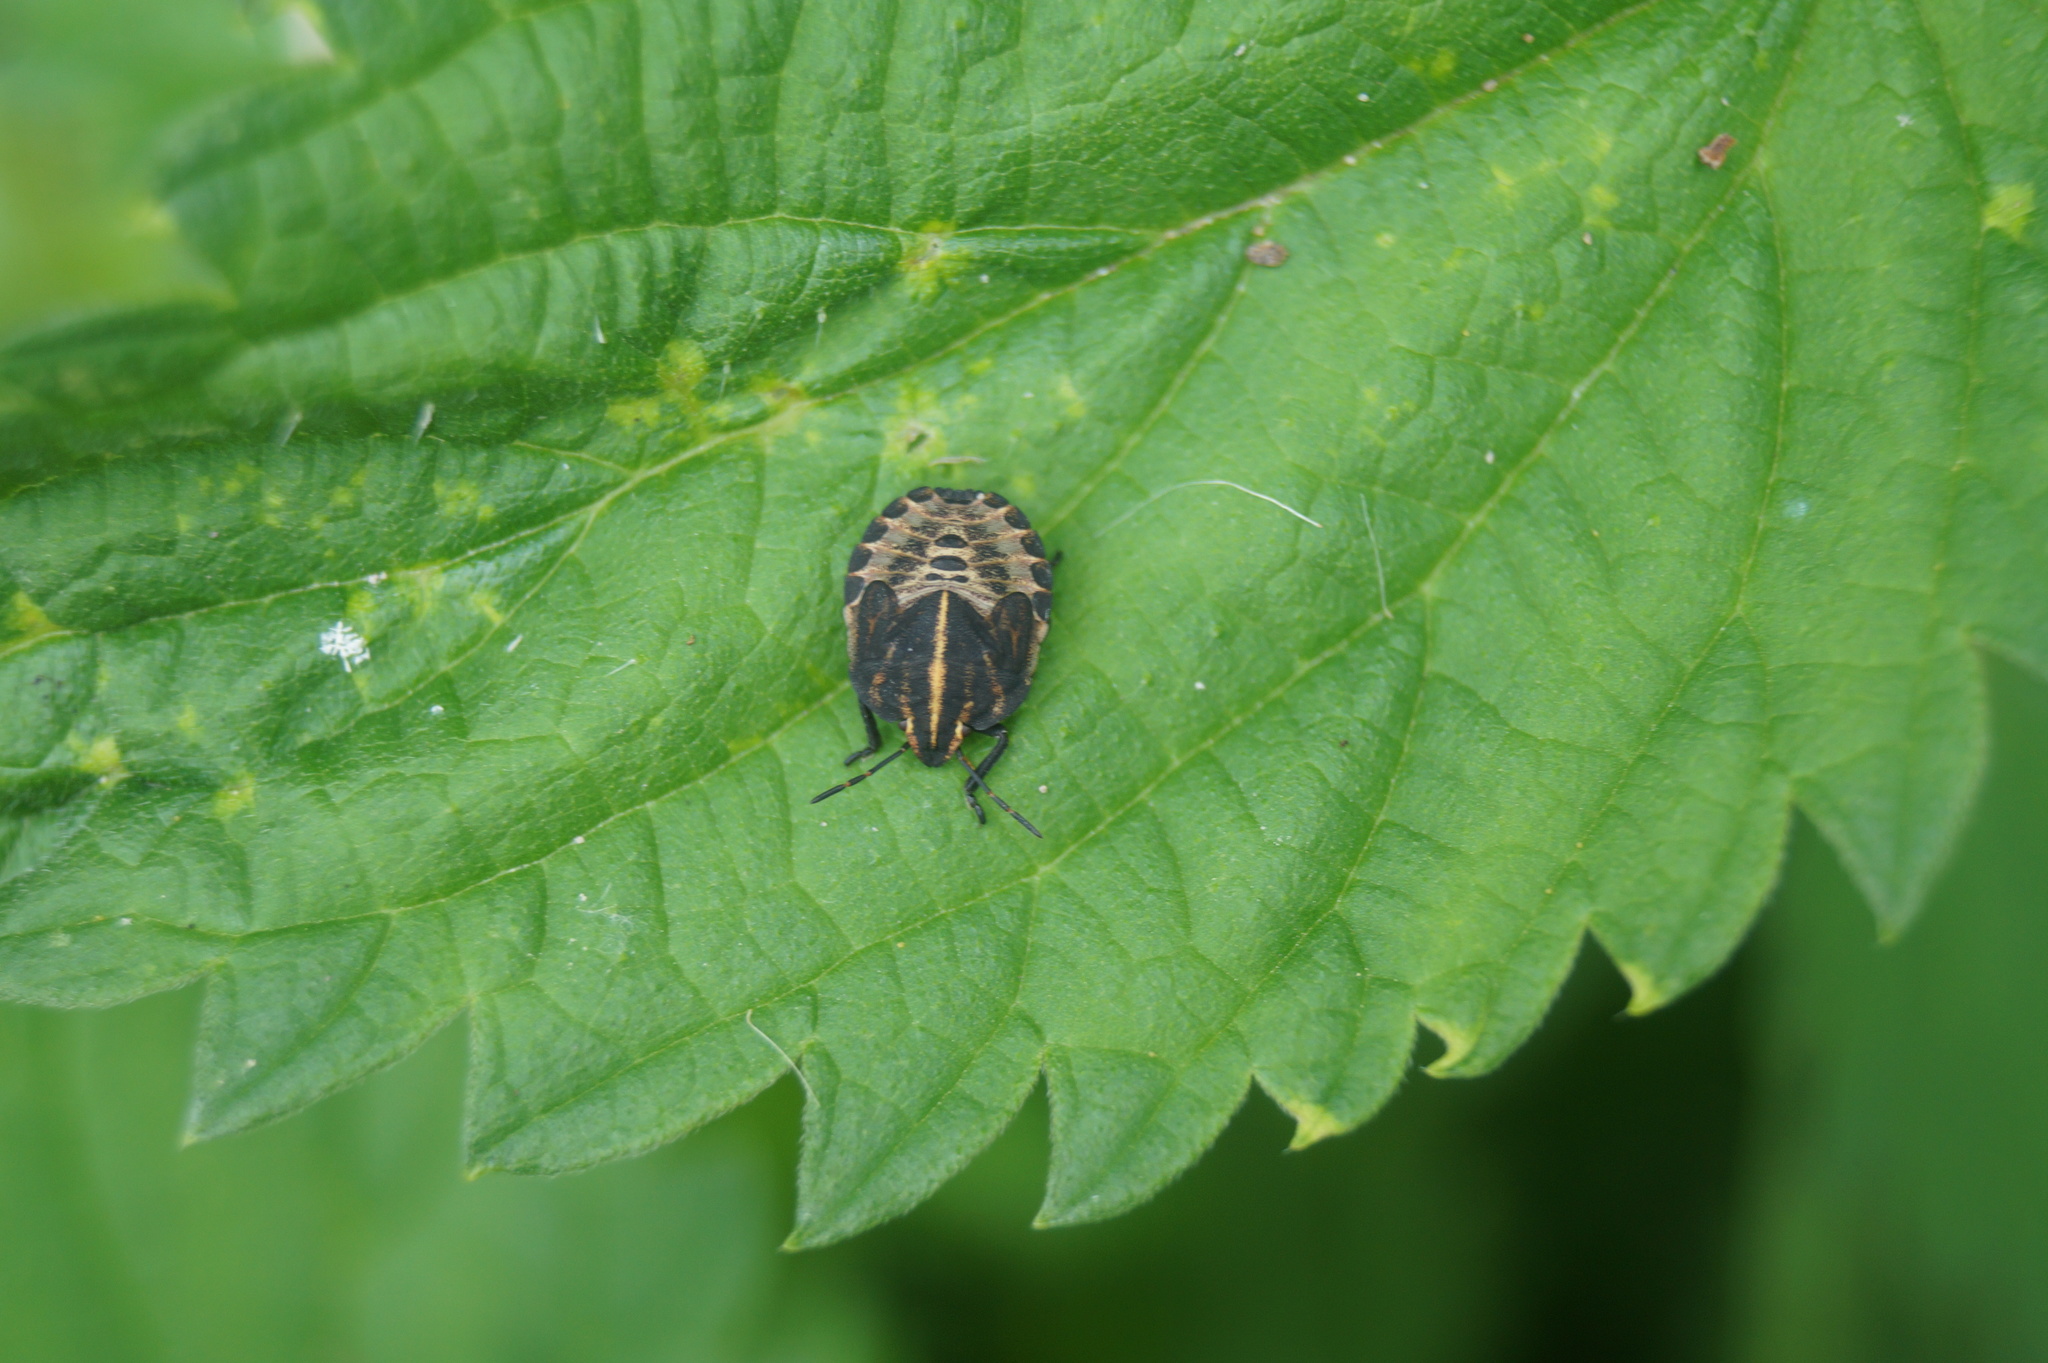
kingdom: Animalia
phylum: Arthropoda
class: Insecta
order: Hemiptera
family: Pentatomidae
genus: Graphosoma
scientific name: Graphosoma italicum
